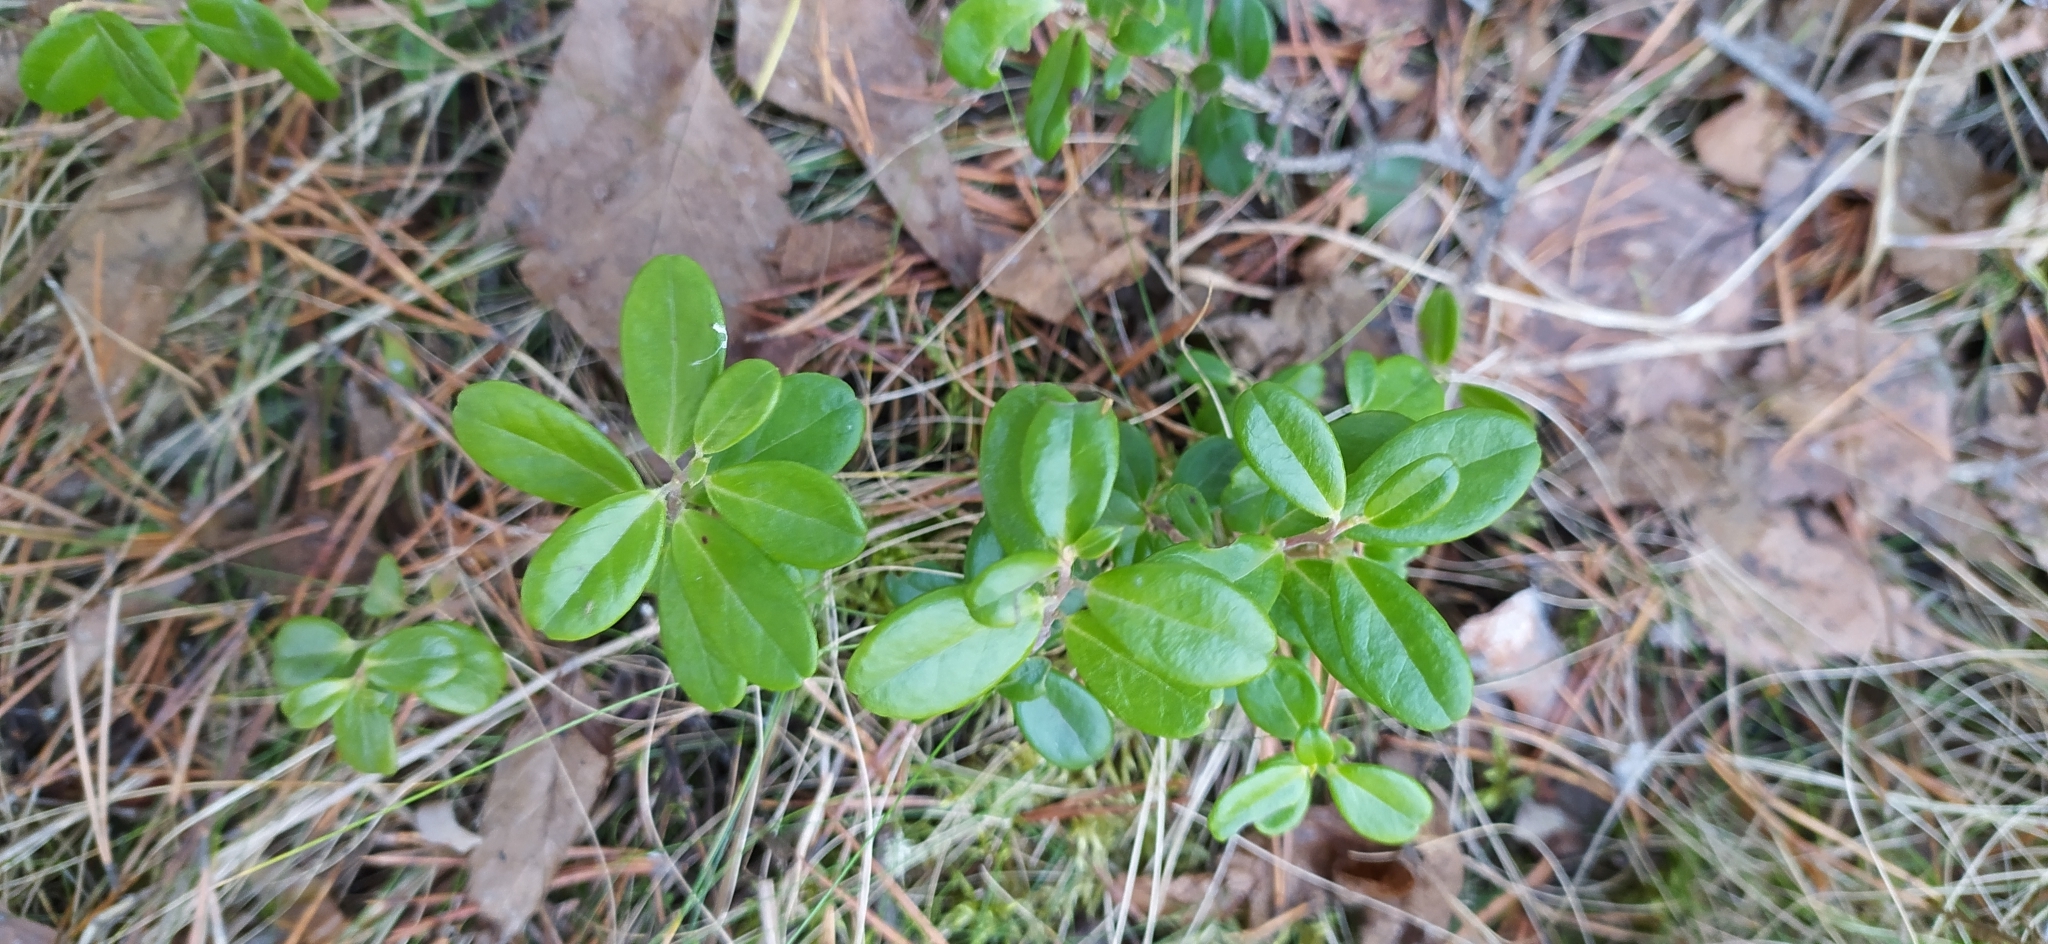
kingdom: Plantae
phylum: Tracheophyta
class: Magnoliopsida
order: Ericales
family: Ericaceae
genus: Vaccinium
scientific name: Vaccinium vitis-idaea
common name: Cowberry
